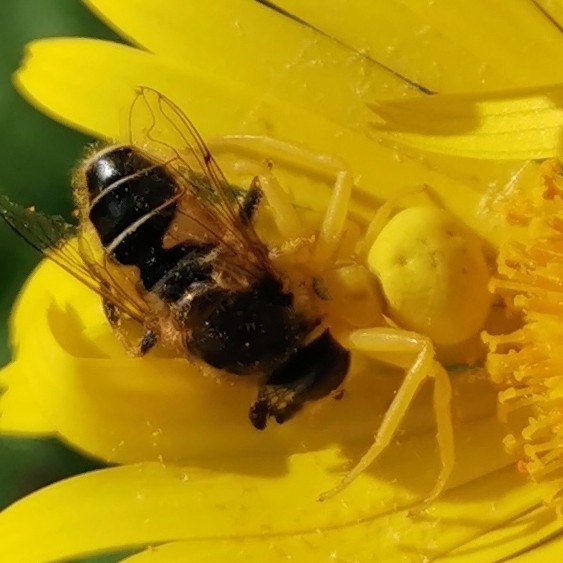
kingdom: Animalia
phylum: Arthropoda
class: Arachnida
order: Araneae
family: Thomisidae
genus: Misumena
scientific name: Misumena vatia
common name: Goldenrod crab spider
